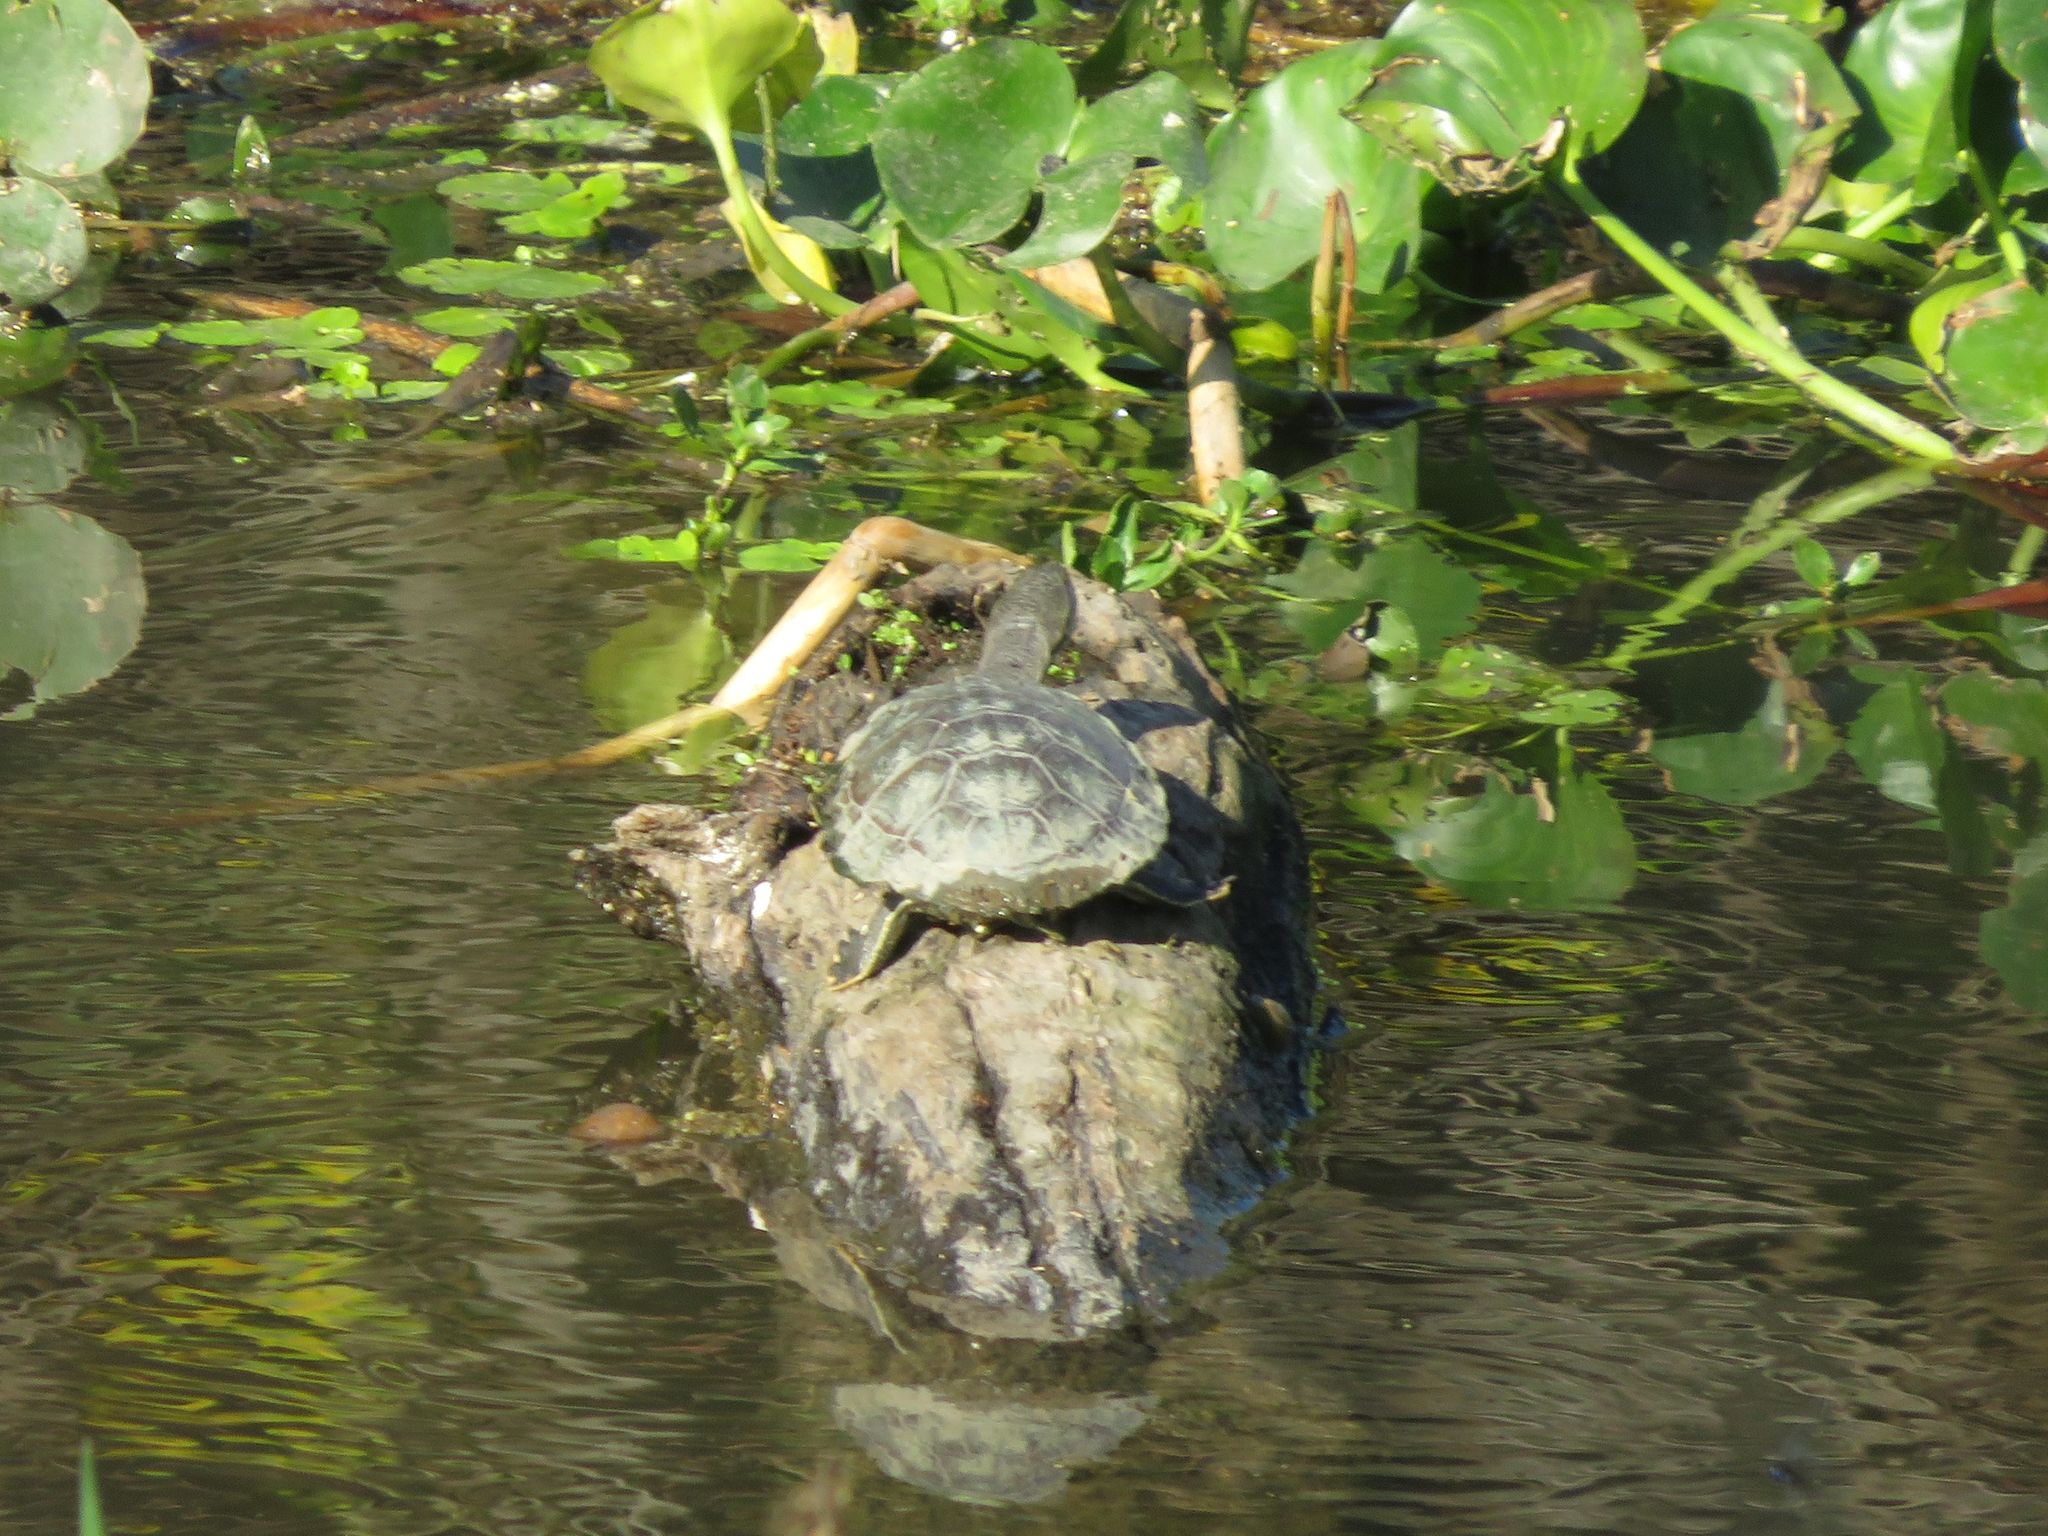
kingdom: Animalia
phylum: Chordata
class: Testudines
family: Chelidae
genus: Phrynops
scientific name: Phrynops hilarii
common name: Side-necked turtle of saint hillaire
